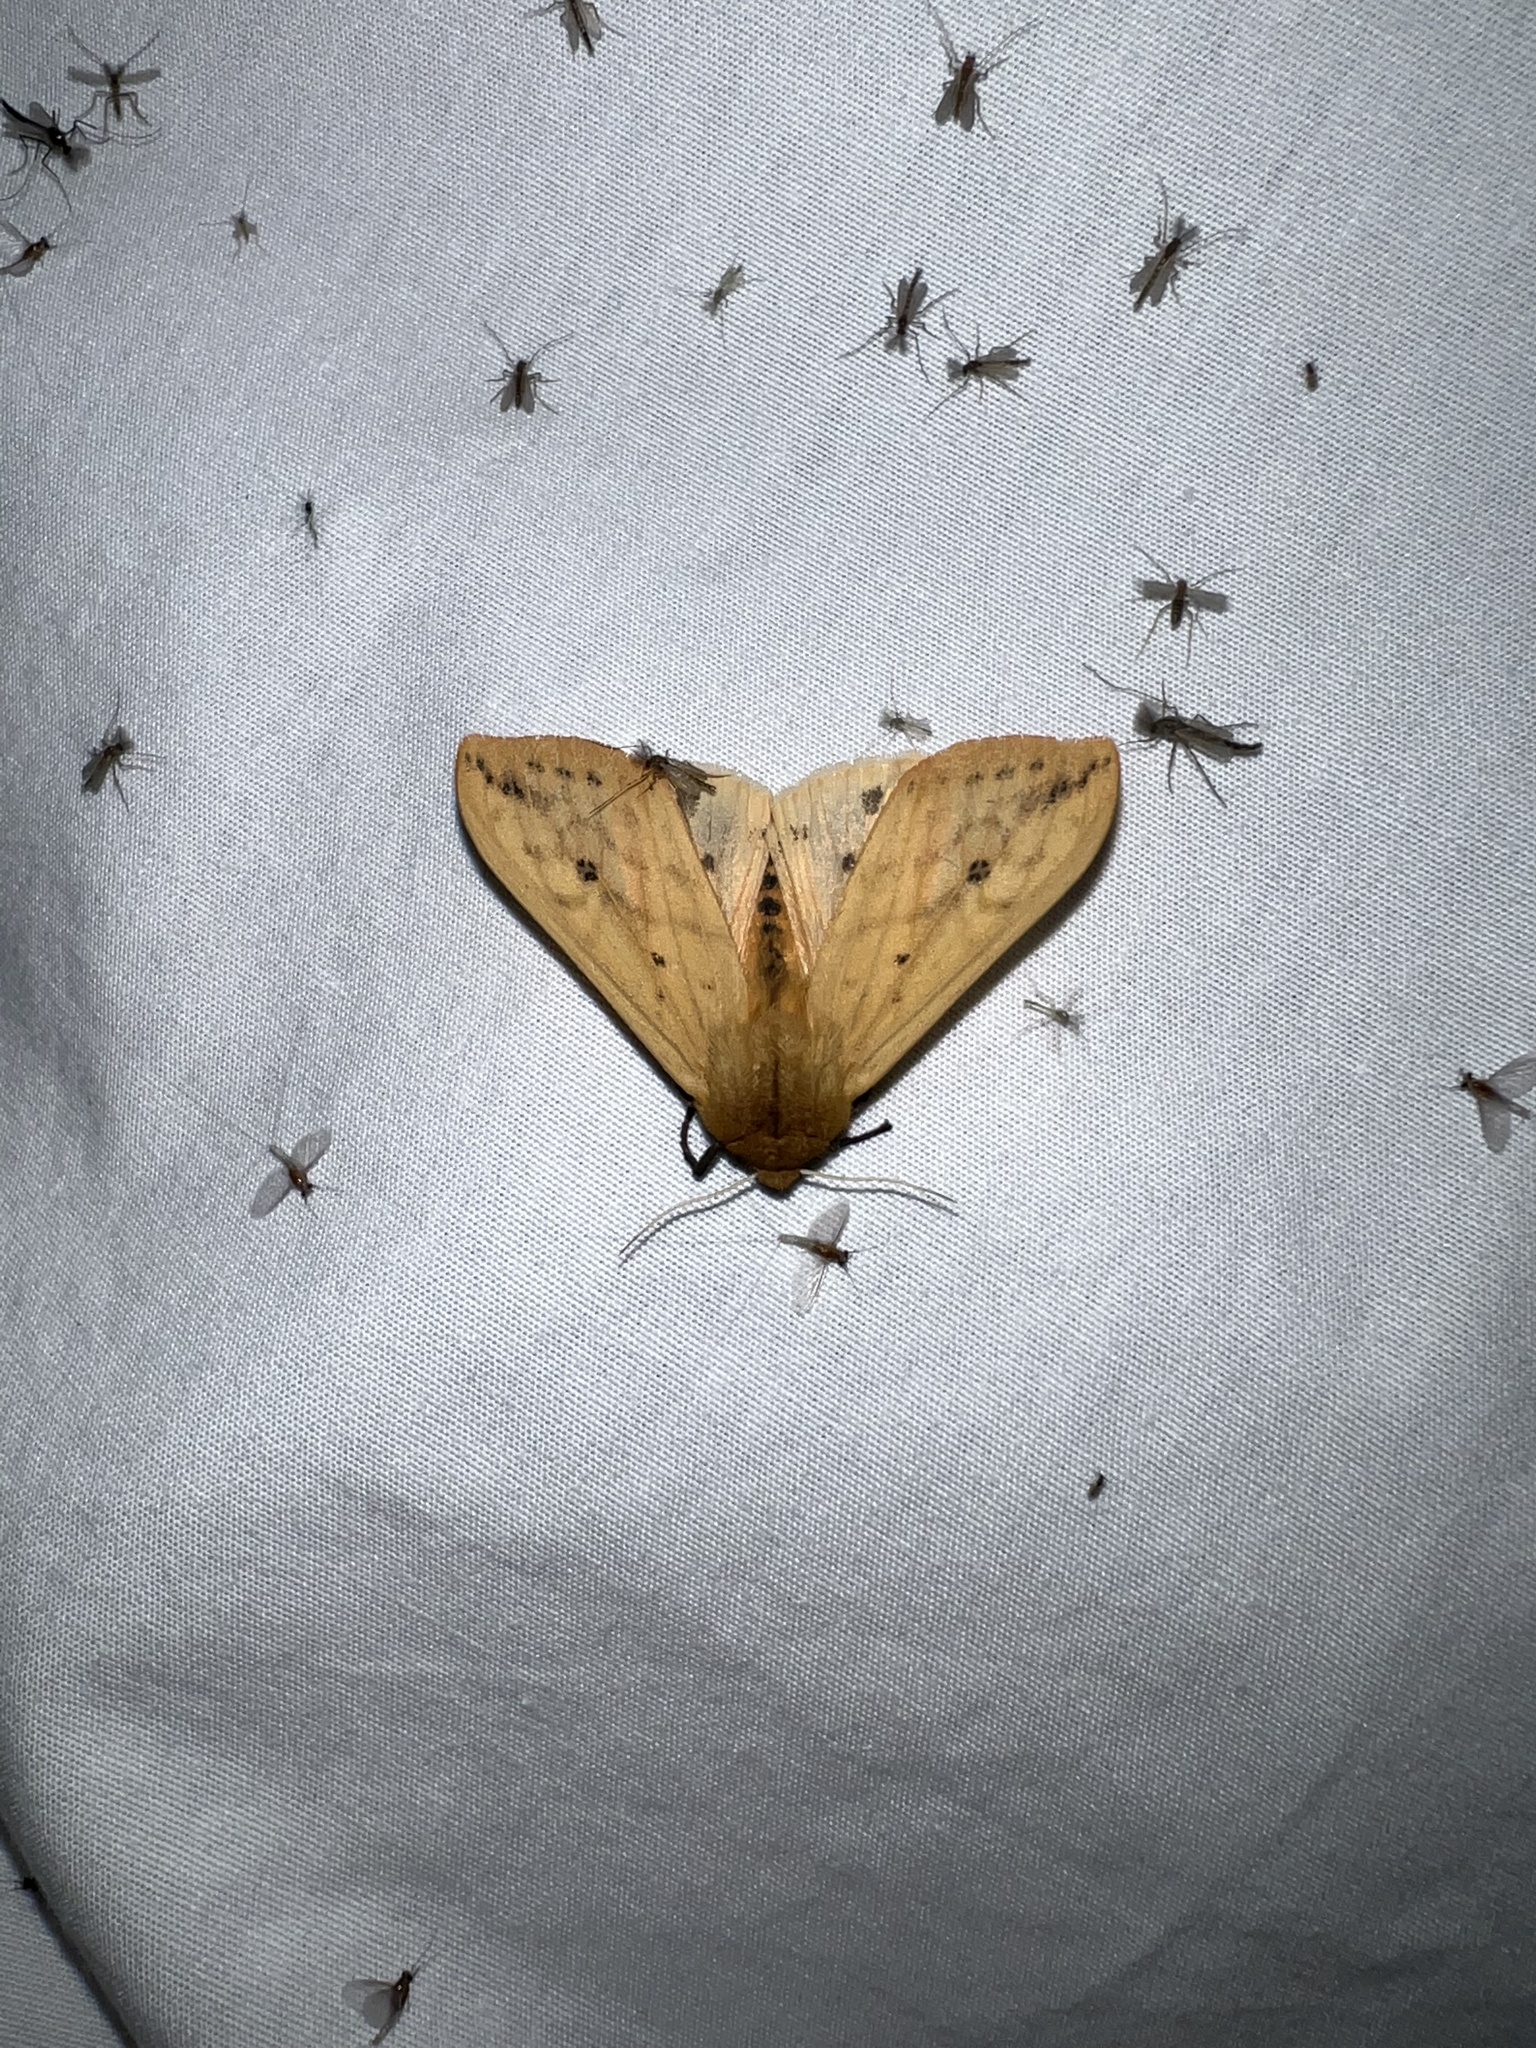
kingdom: Animalia
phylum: Arthropoda
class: Insecta
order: Lepidoptera
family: Erebidae
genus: Pyrrharctia
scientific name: Pyrrharctia isabella
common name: Isabella tiger moth
